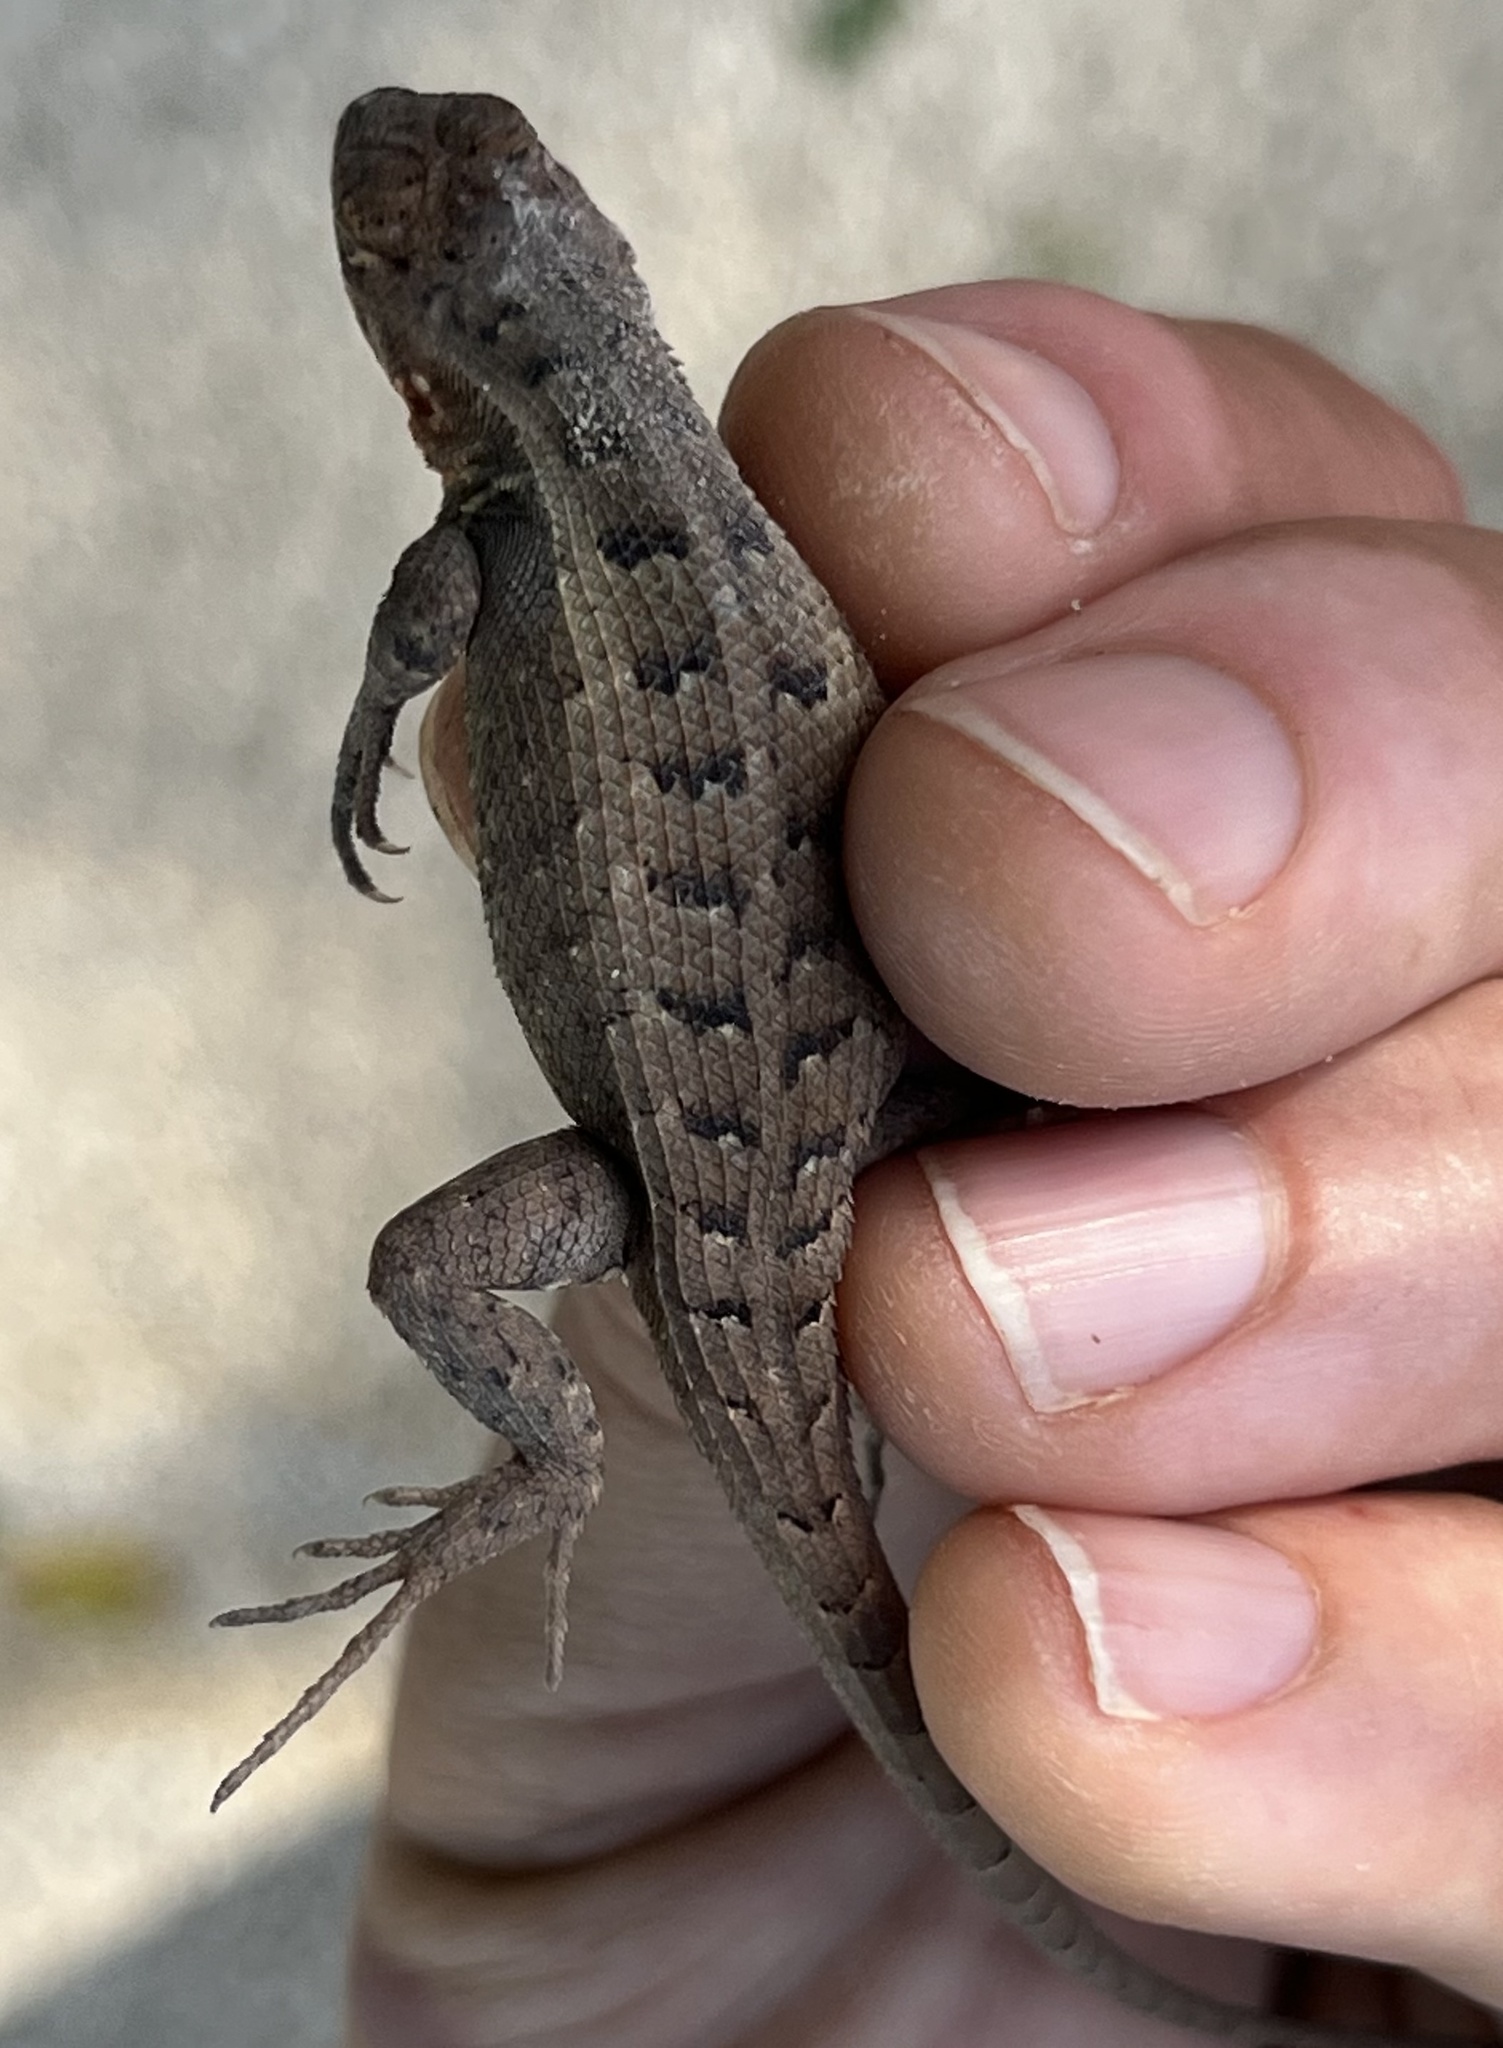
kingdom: Animalia
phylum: Chordata
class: Squamata
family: Phrynosomatidae
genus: Sceloporus
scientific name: Sceloporus squamosus
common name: Dwarf spiny lizard
